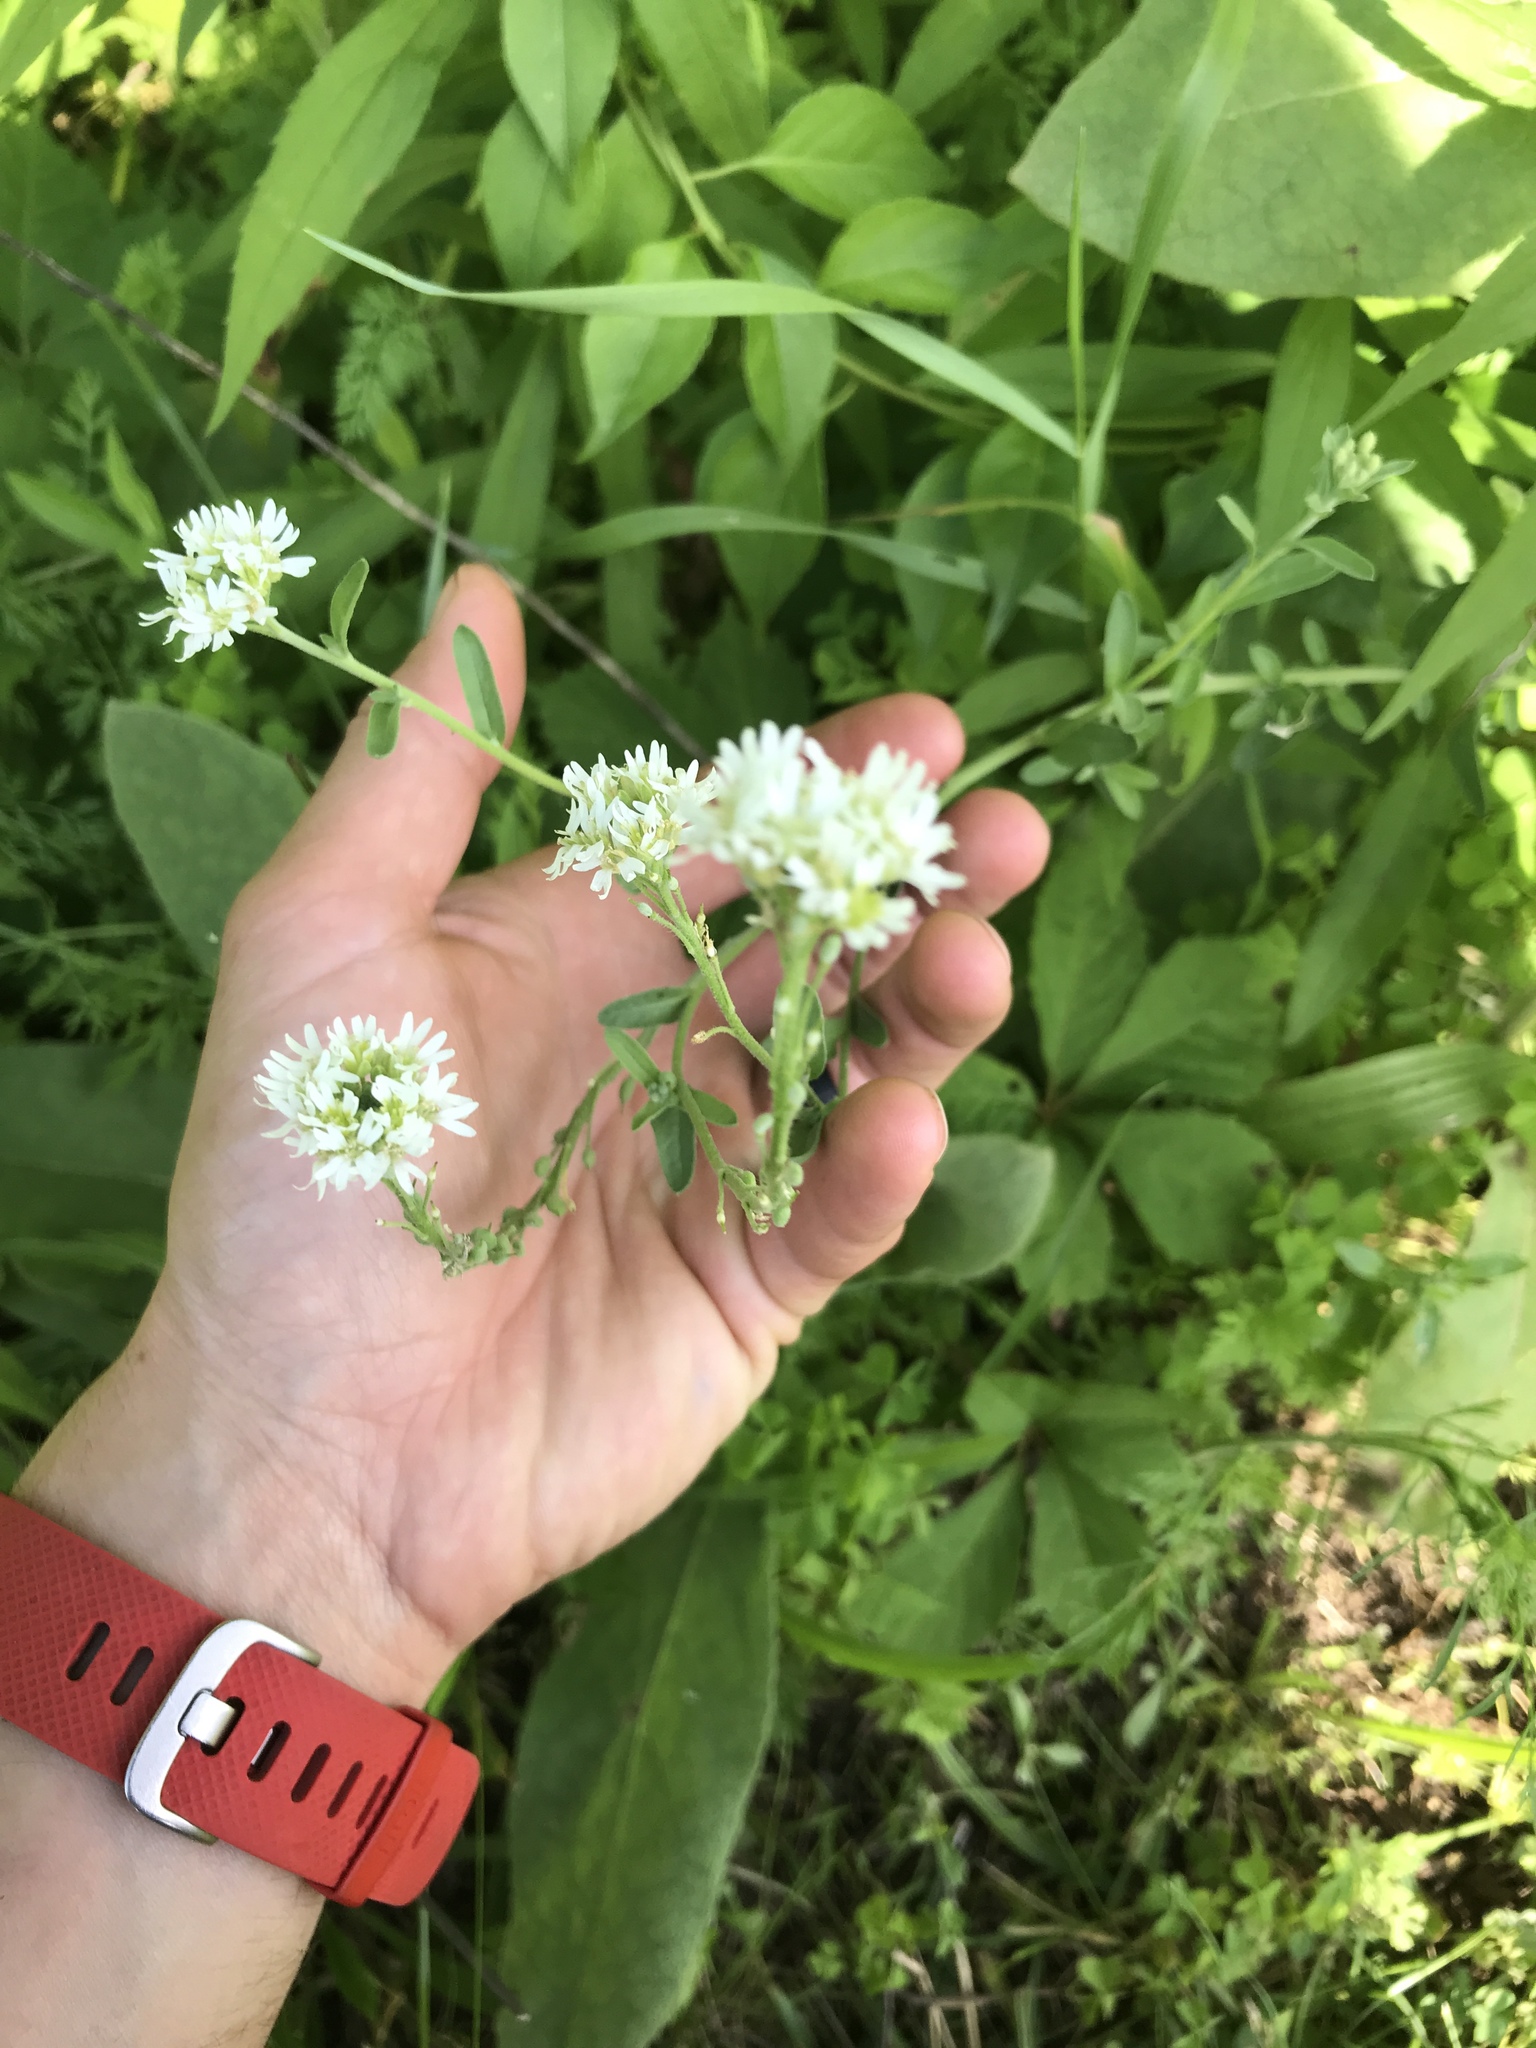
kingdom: Plantae
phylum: Tracheophyta
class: Magnoliopsida
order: Brassicales
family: Brassicaceae
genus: Berteroa
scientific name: Berteroa incana
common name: Hoary alison
